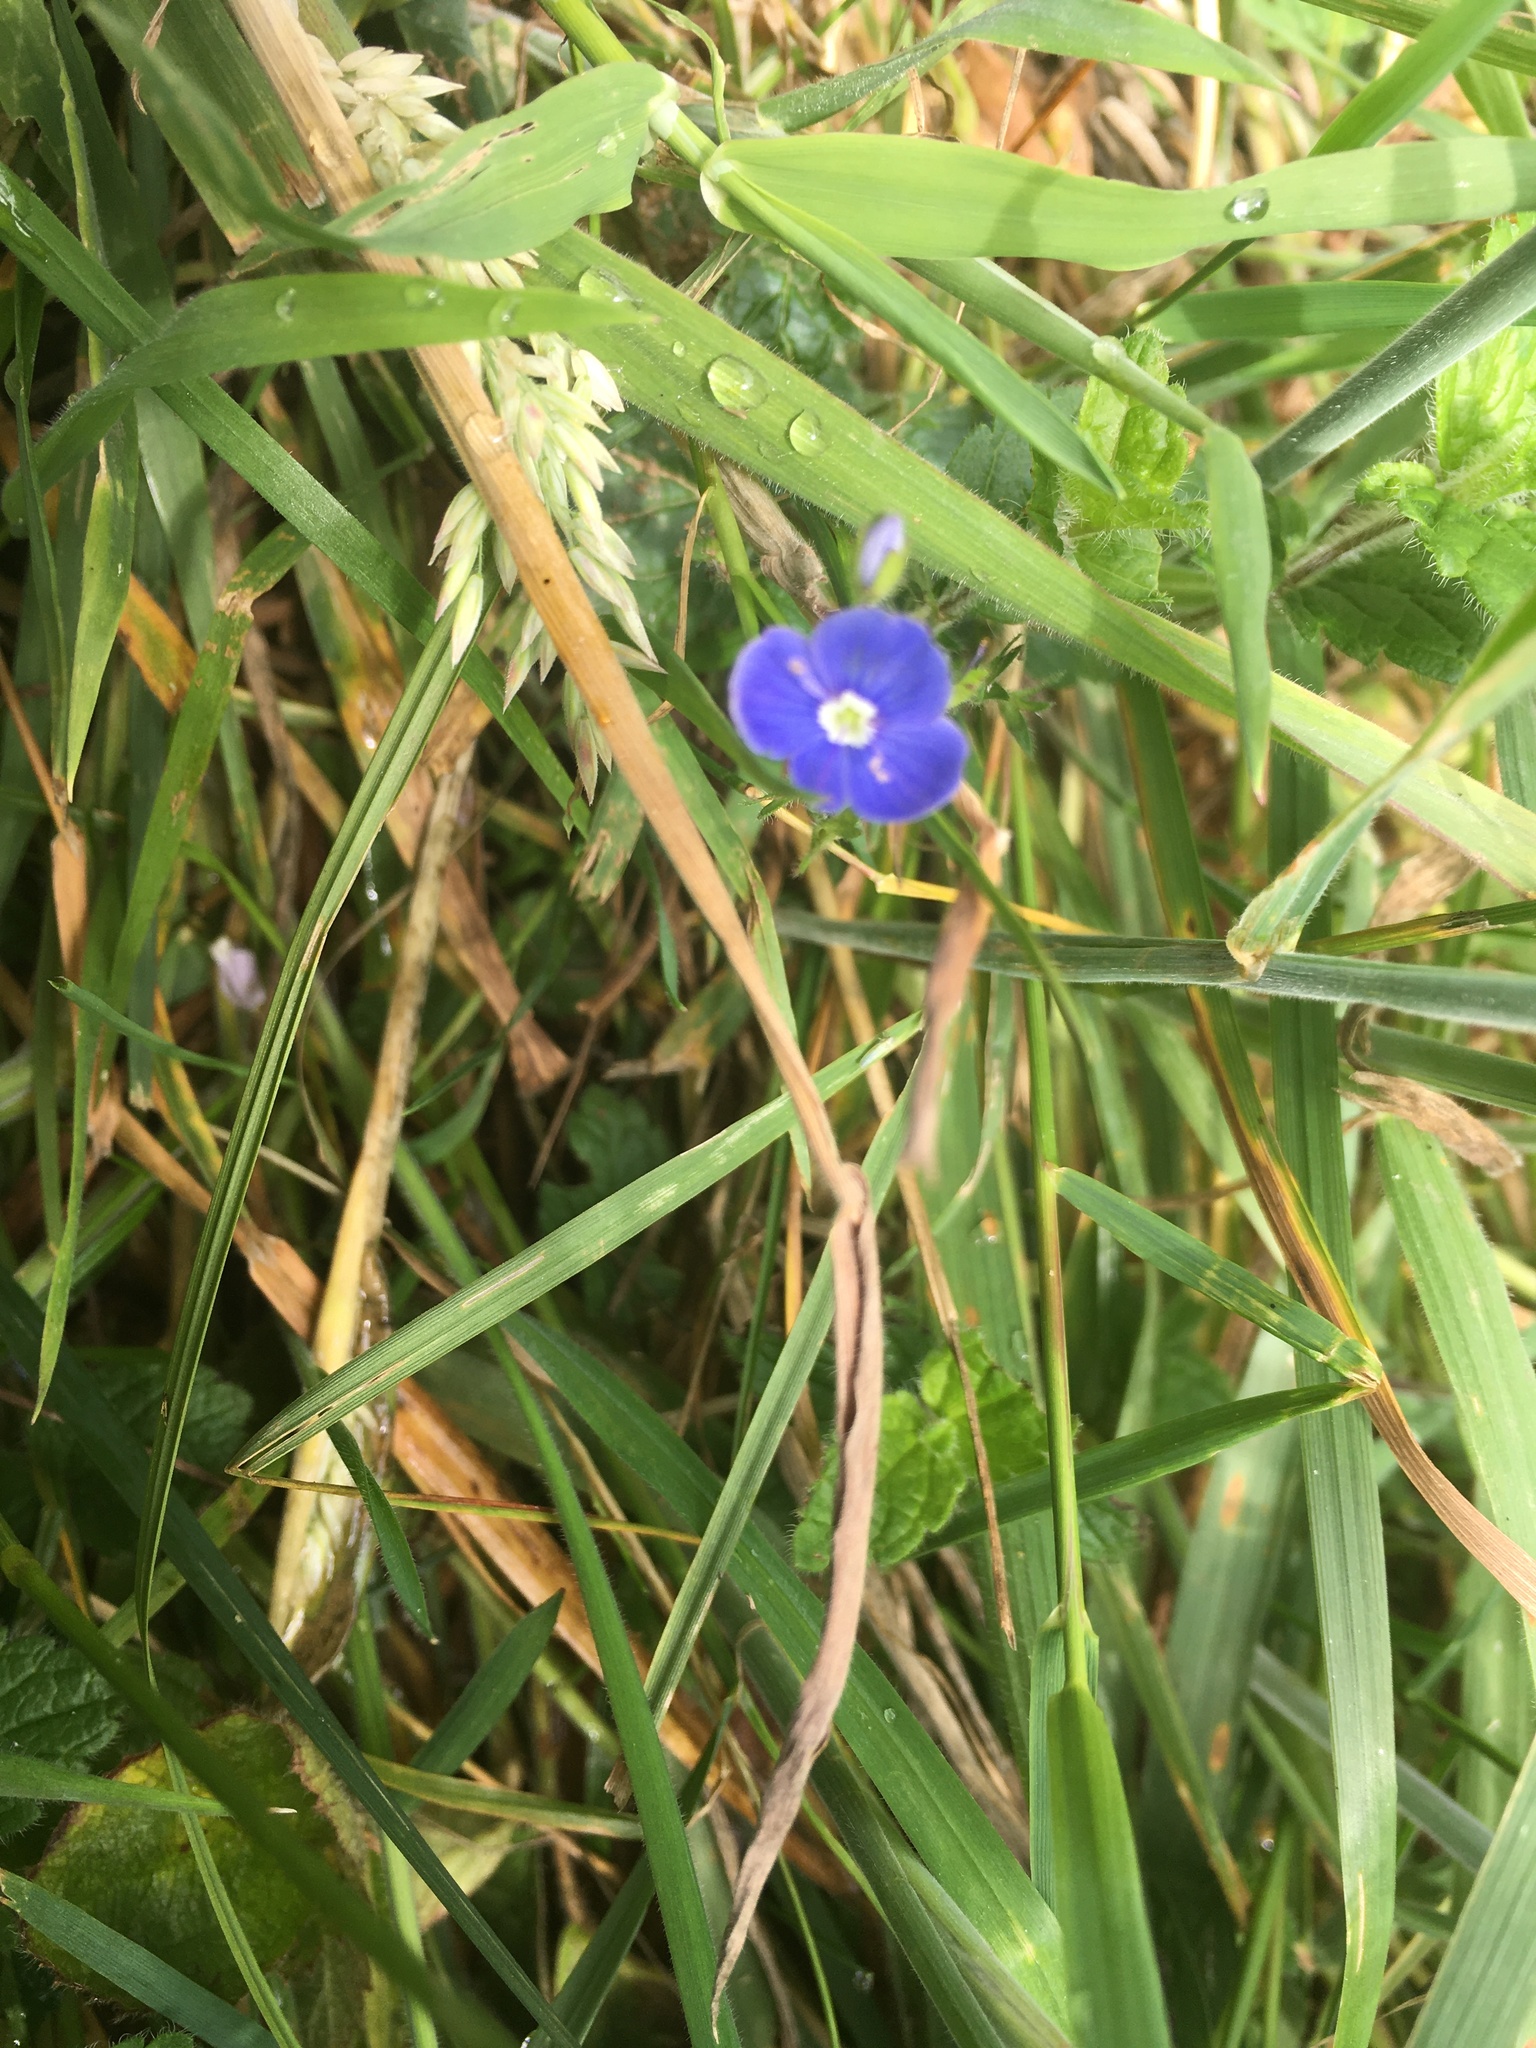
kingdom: Plantae
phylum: Tracheophyta
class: Magnoliopsida
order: Lamiales
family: Plantaginaceae
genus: Veronica
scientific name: Veronica chamaedrys
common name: Germander speedwell
